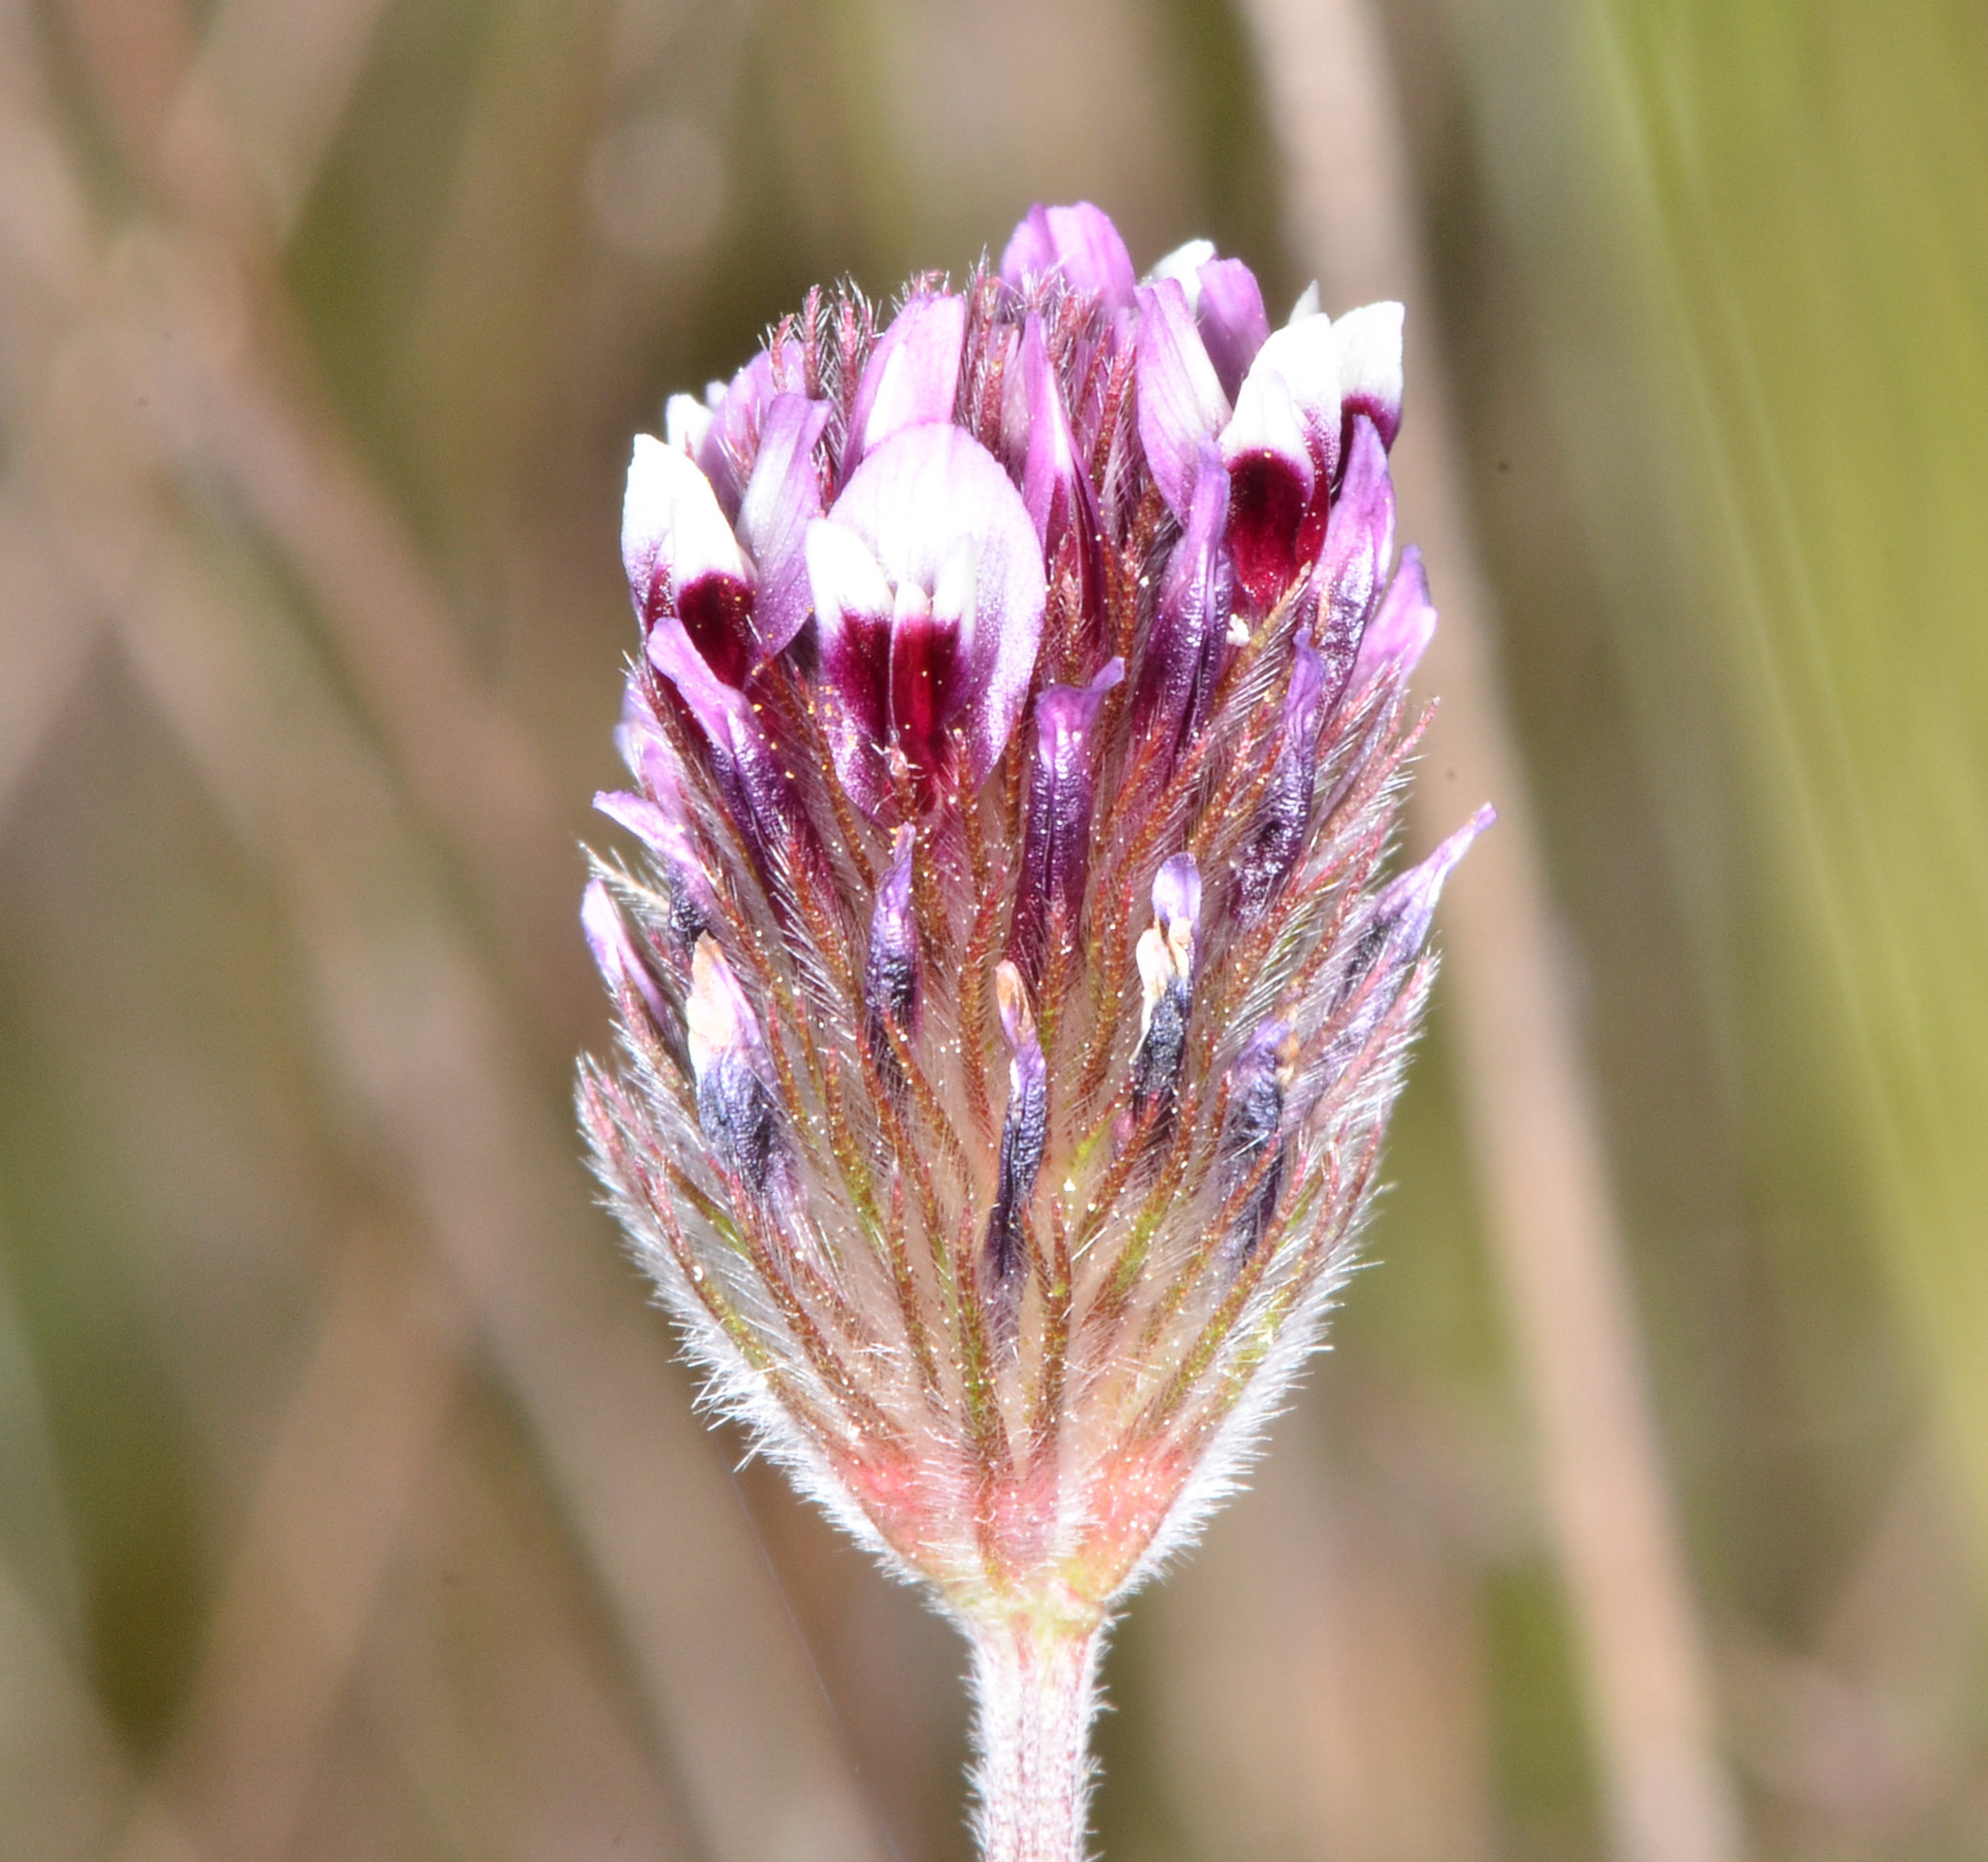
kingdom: Plantae
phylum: Tracheophyta
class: Magnoliopsida
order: Fabales
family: Fabaceae
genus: Trifolium
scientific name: Trifolium dichotomum
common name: Branched indian clover
